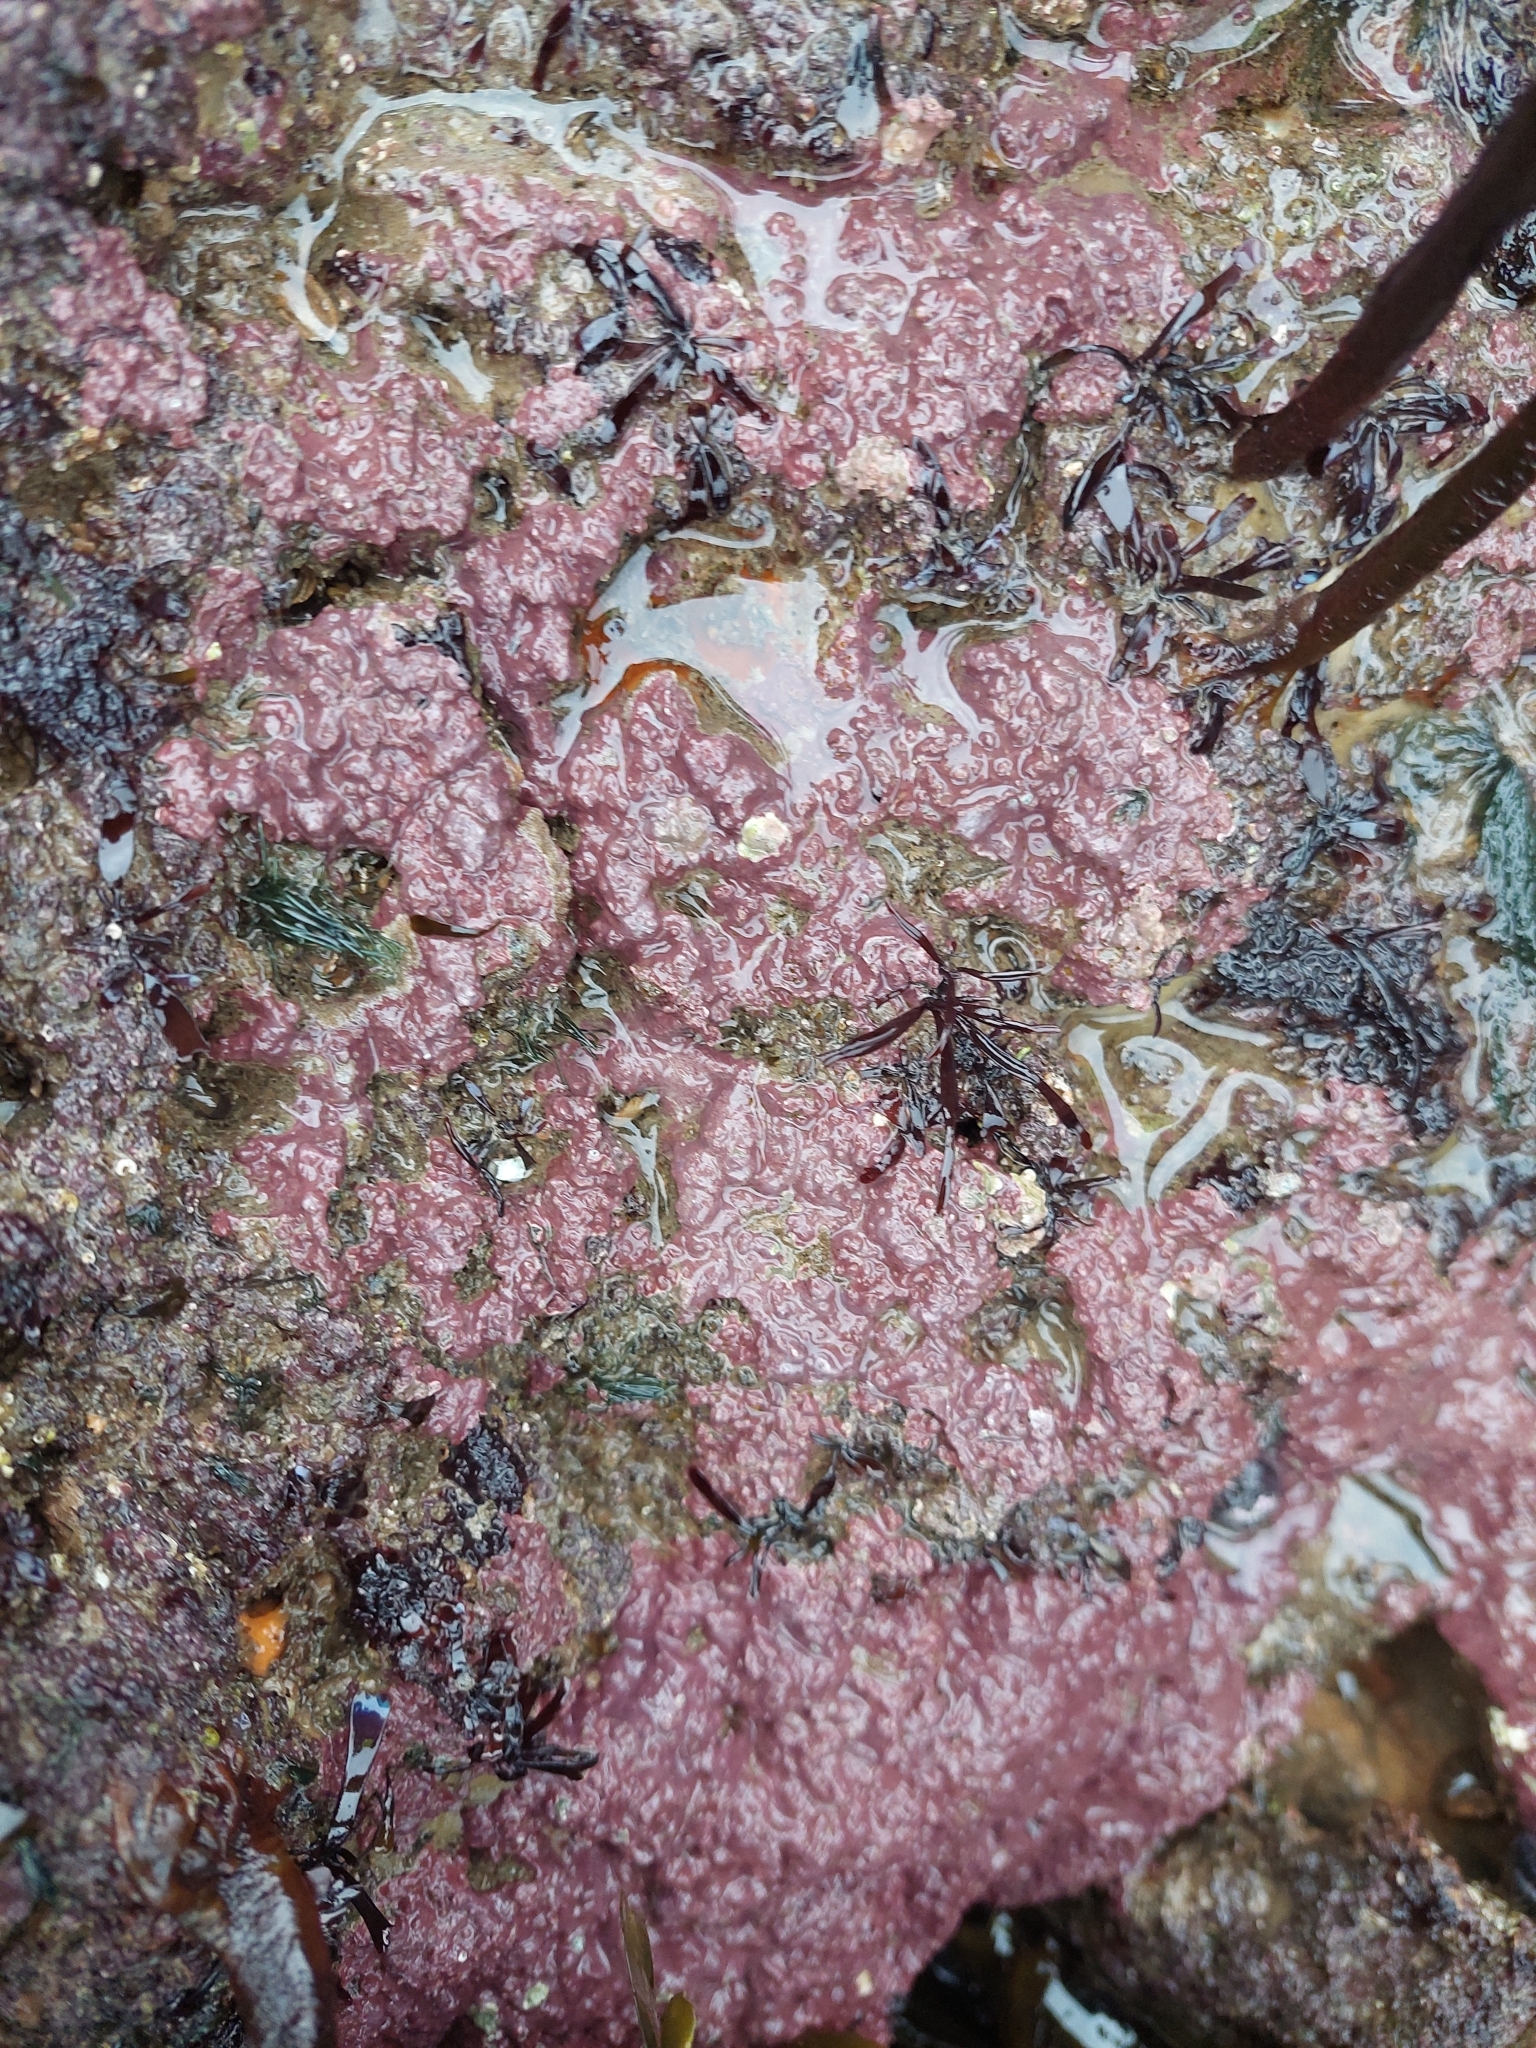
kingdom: Plantae
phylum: Rhodophyta
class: Florideophyceae
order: Corallinales
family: Lithophyllaceae
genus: Lithophyllum
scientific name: Lithophyllum incrustans
